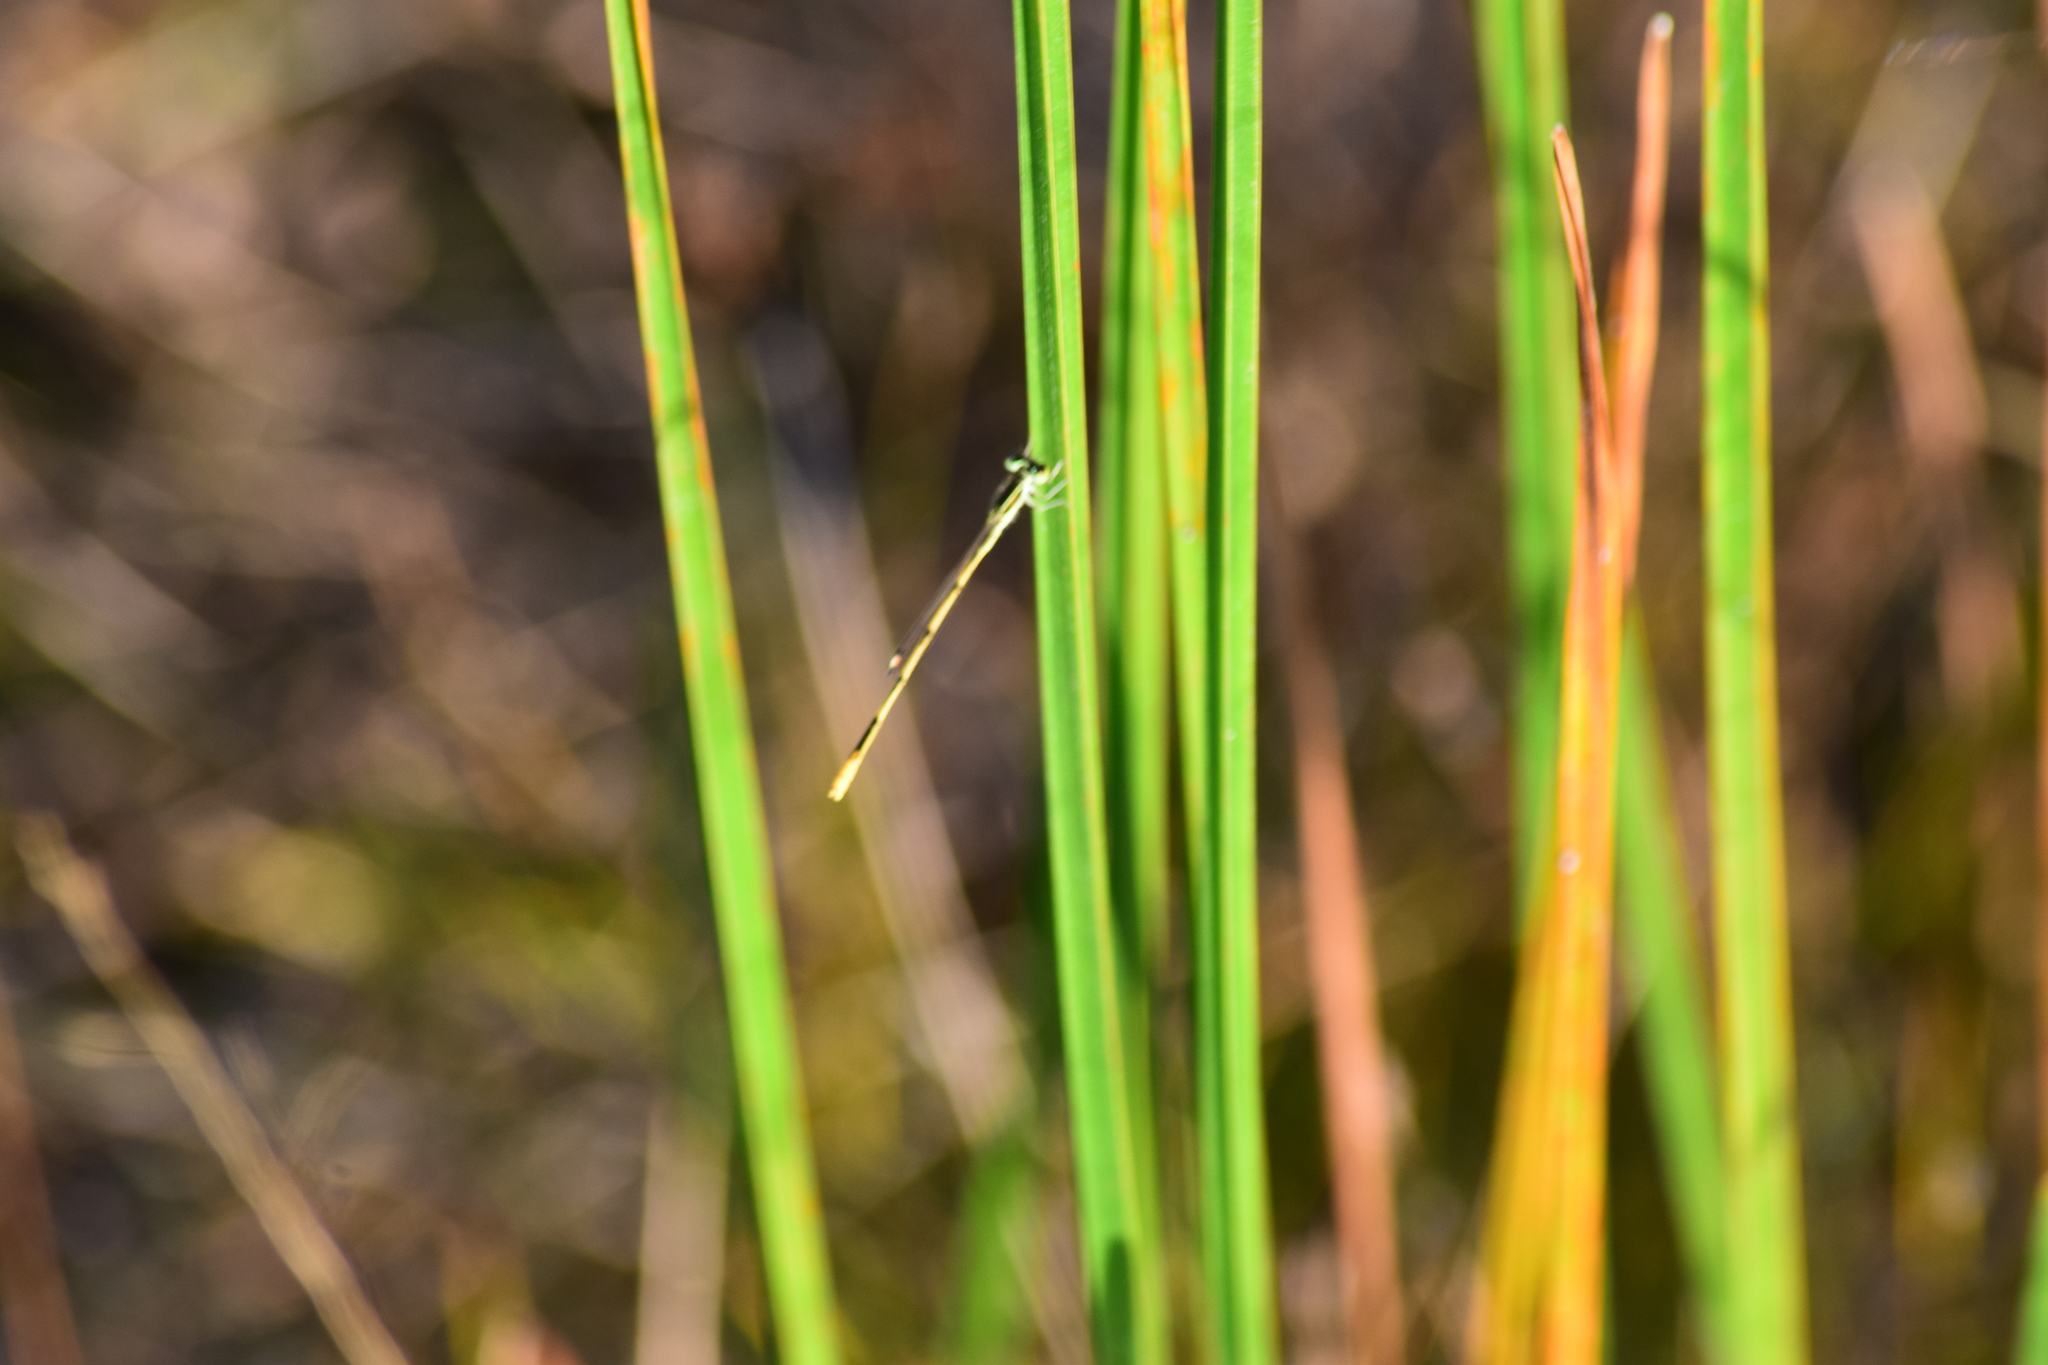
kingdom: Animalia
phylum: Arthropoda
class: Insecta
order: Odonata
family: Coenagrionidae
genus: Ischnura
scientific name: Ischnura hastata
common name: Citrine forktail
